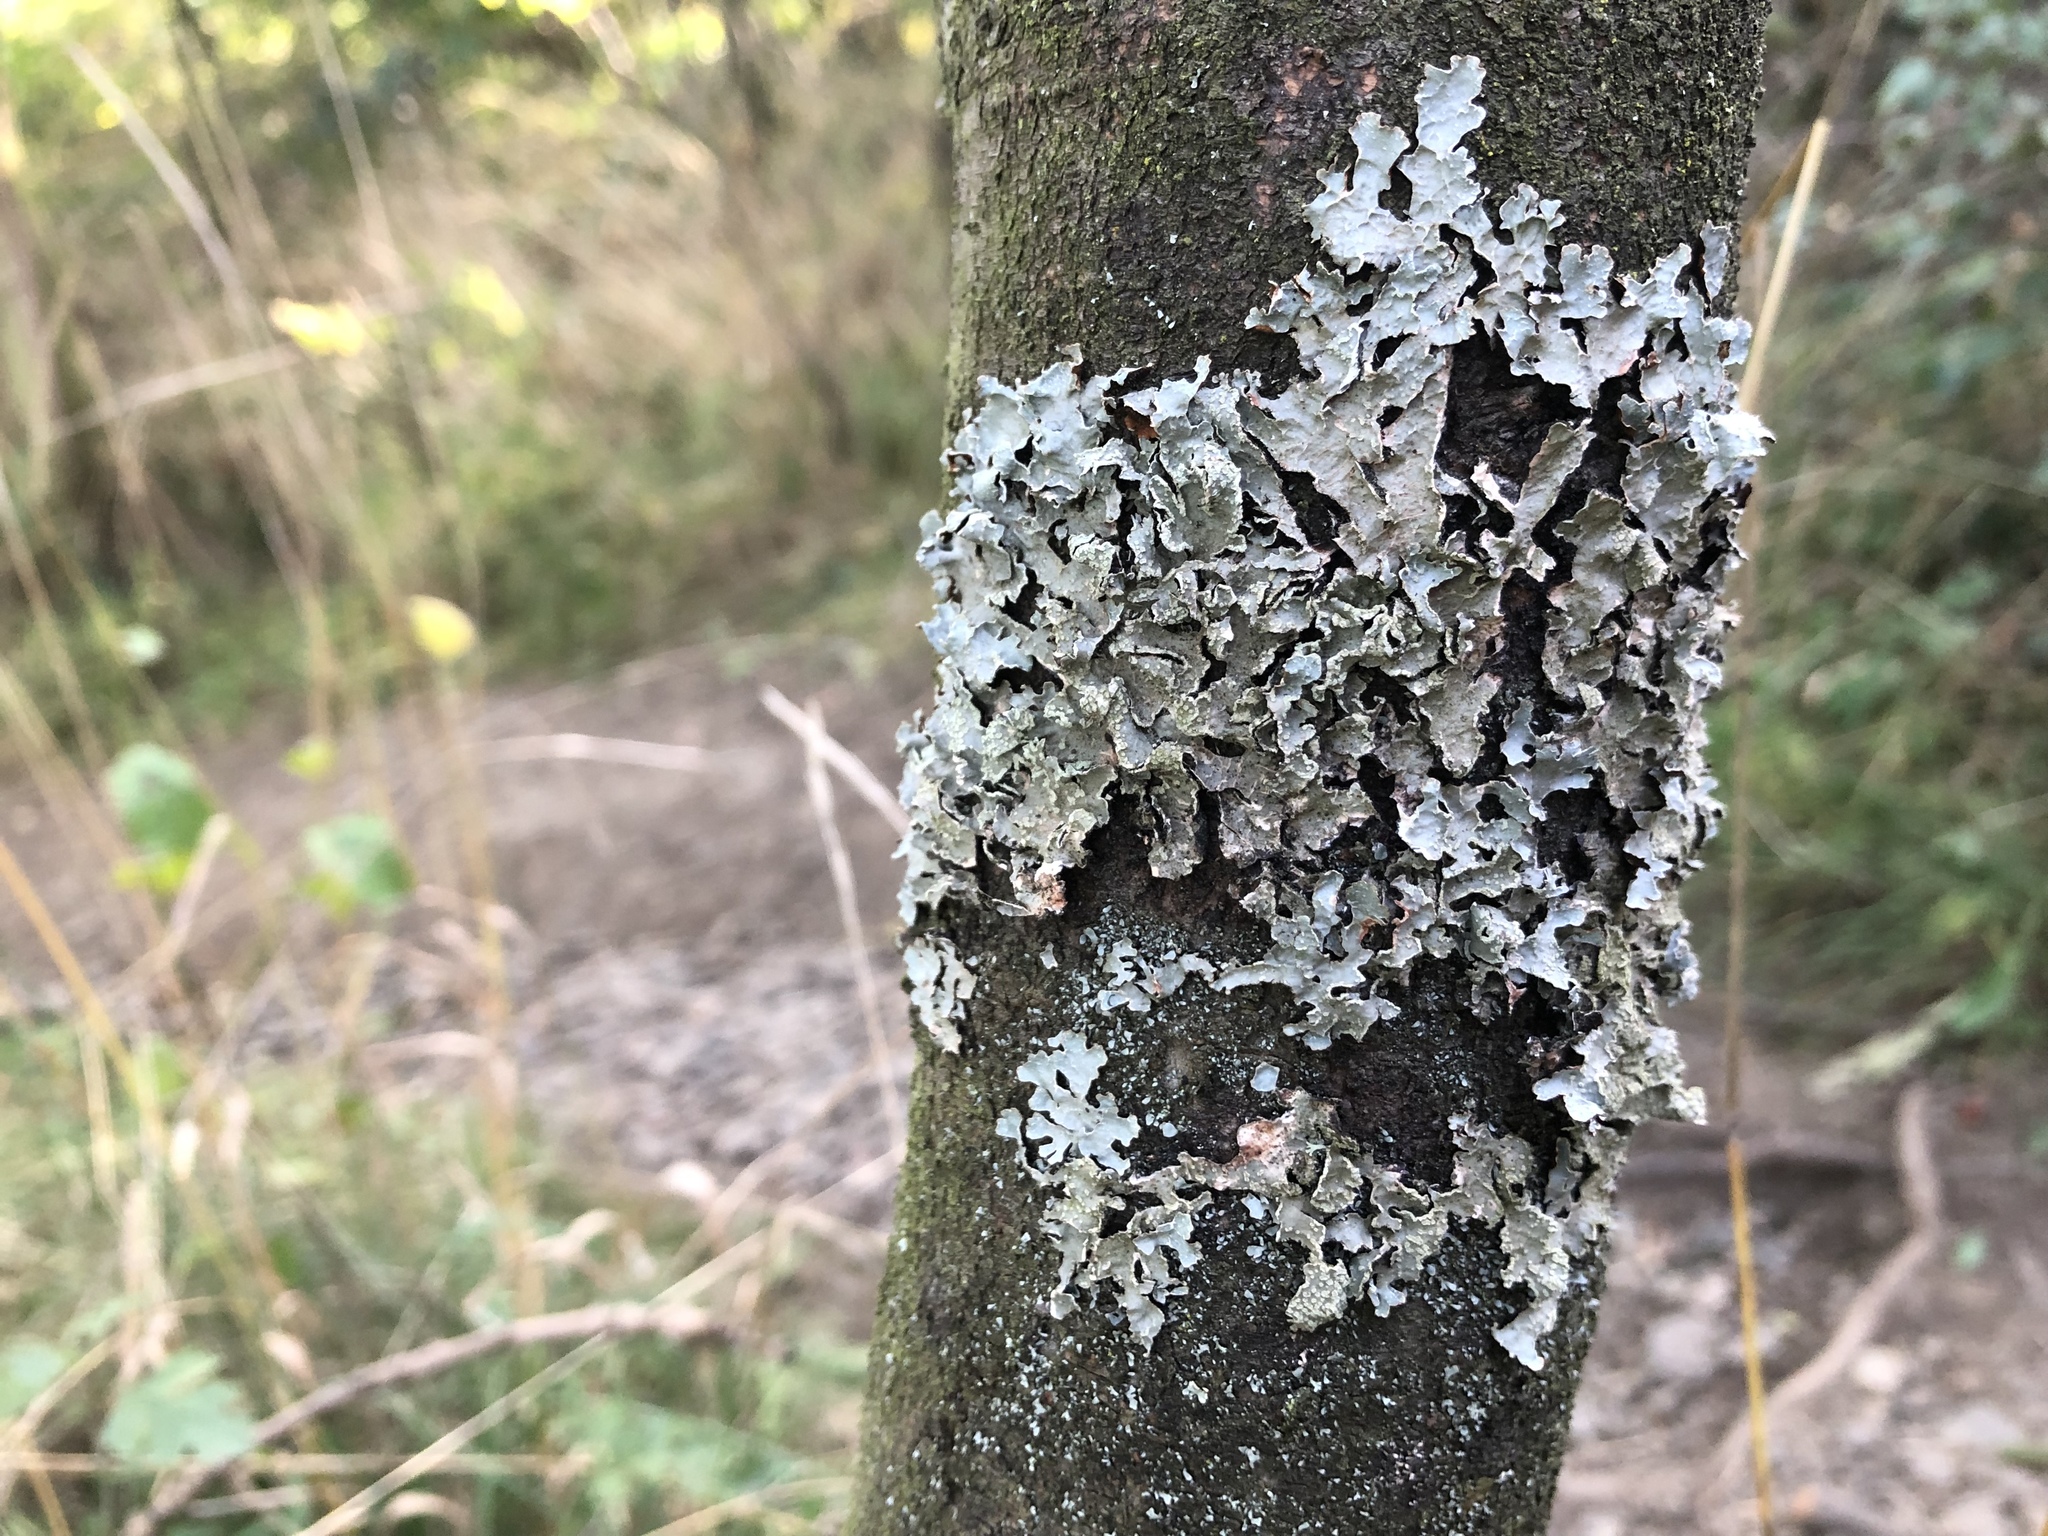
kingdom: Fungi
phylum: Ascomycota
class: Lecanoromycetes
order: Lecanorales
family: Parmeliaceae
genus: Parmelia
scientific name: Parmelia sulcata
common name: Netted shield lichen
